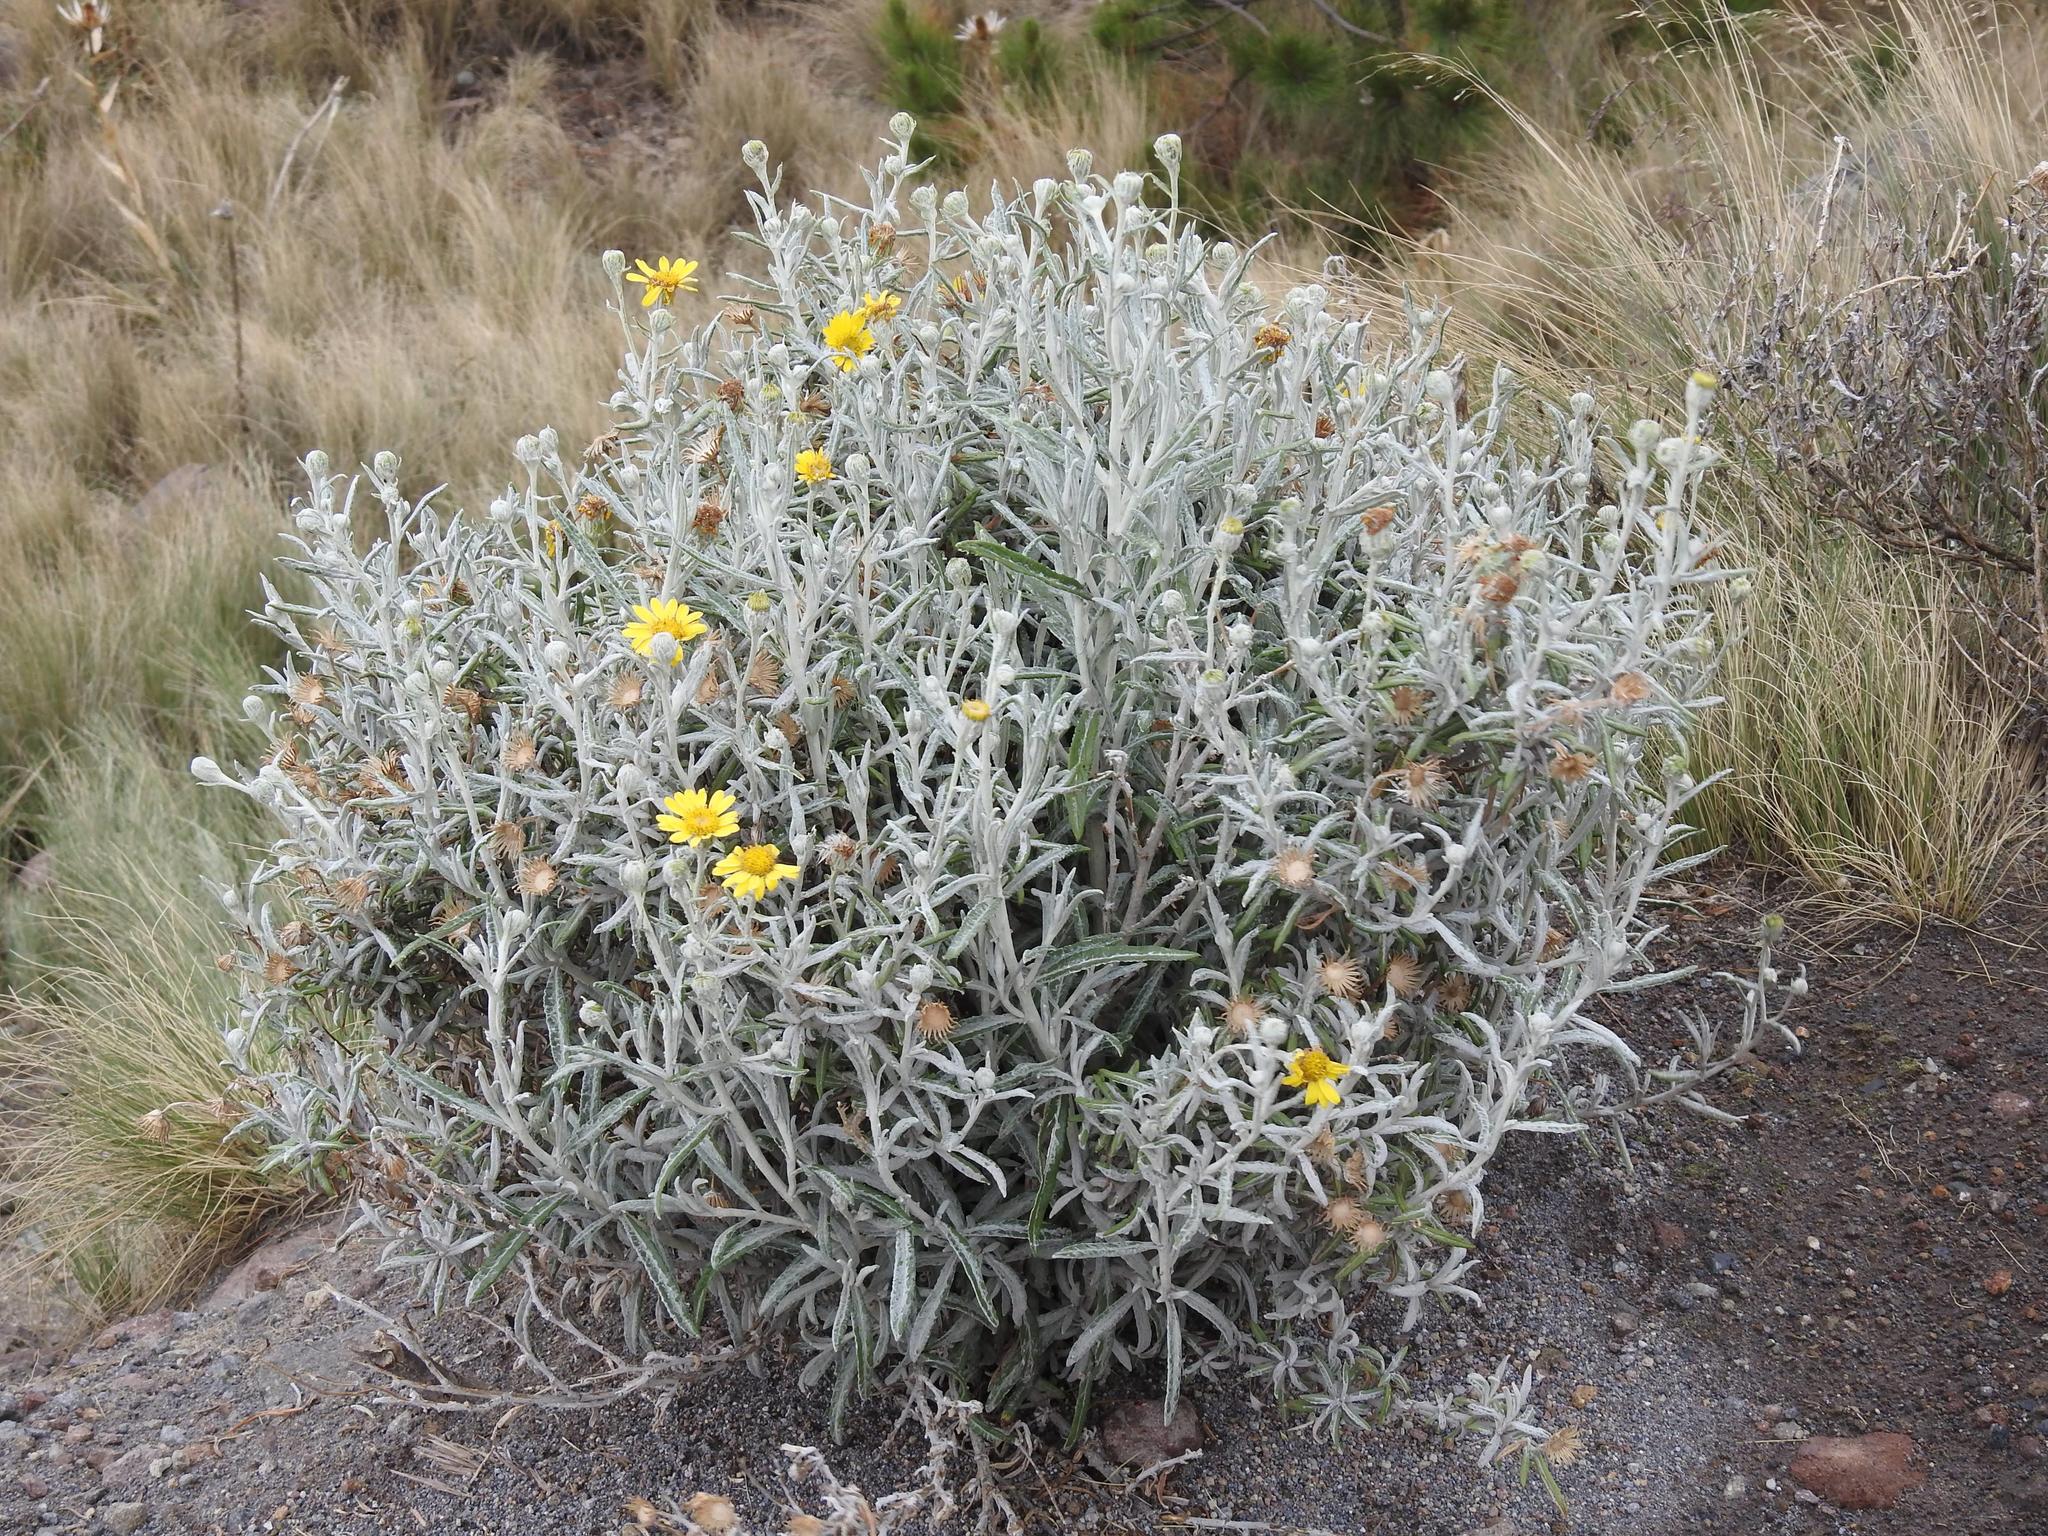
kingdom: Plantae
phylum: Tracheophyta
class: Magnoliopsida
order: Asterales
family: Asteraceae
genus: Senecio
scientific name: Senecio mairetianus
